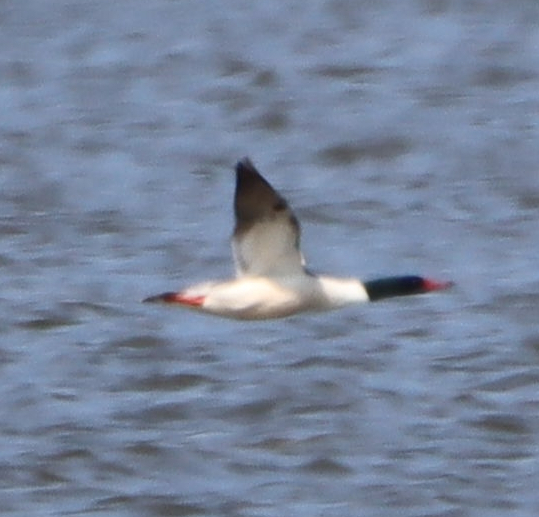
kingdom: Animalia
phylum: Chordata
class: Aves
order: Anseriformes
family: Anatidae
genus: Mergus
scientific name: Mergus merganser
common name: Common merganser
